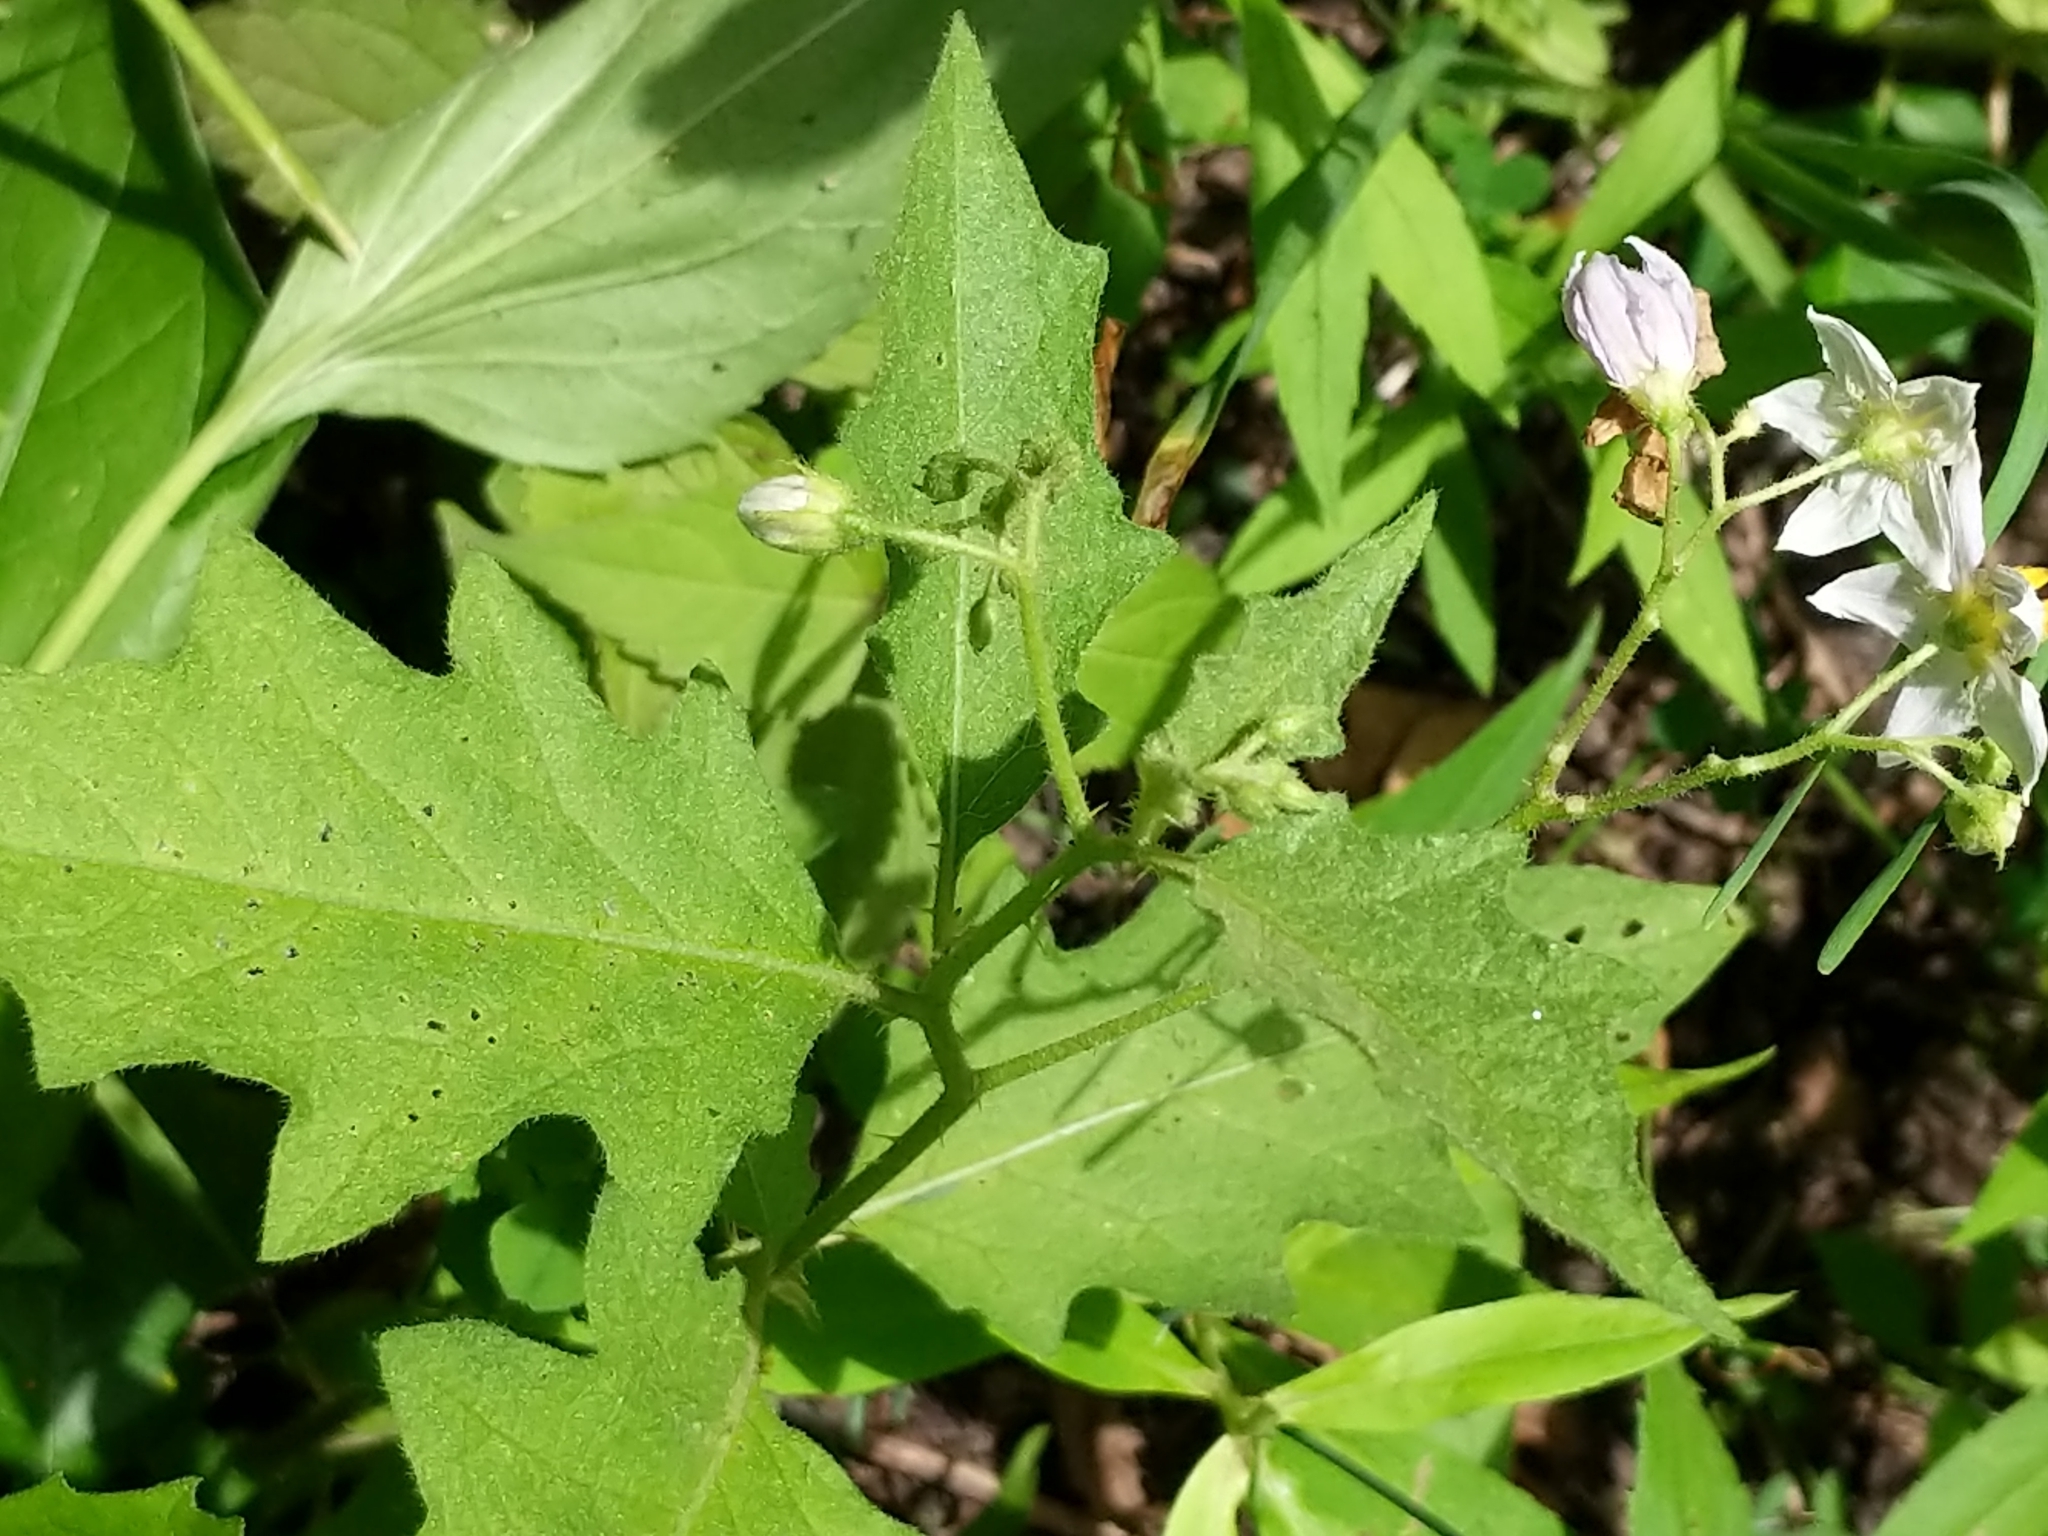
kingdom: Plantae
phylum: Tracheophyta
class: Magnoliopsida
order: Solanales
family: Solanaceae
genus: Solanum
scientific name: Solanum carolinense
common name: Horse-nettle
